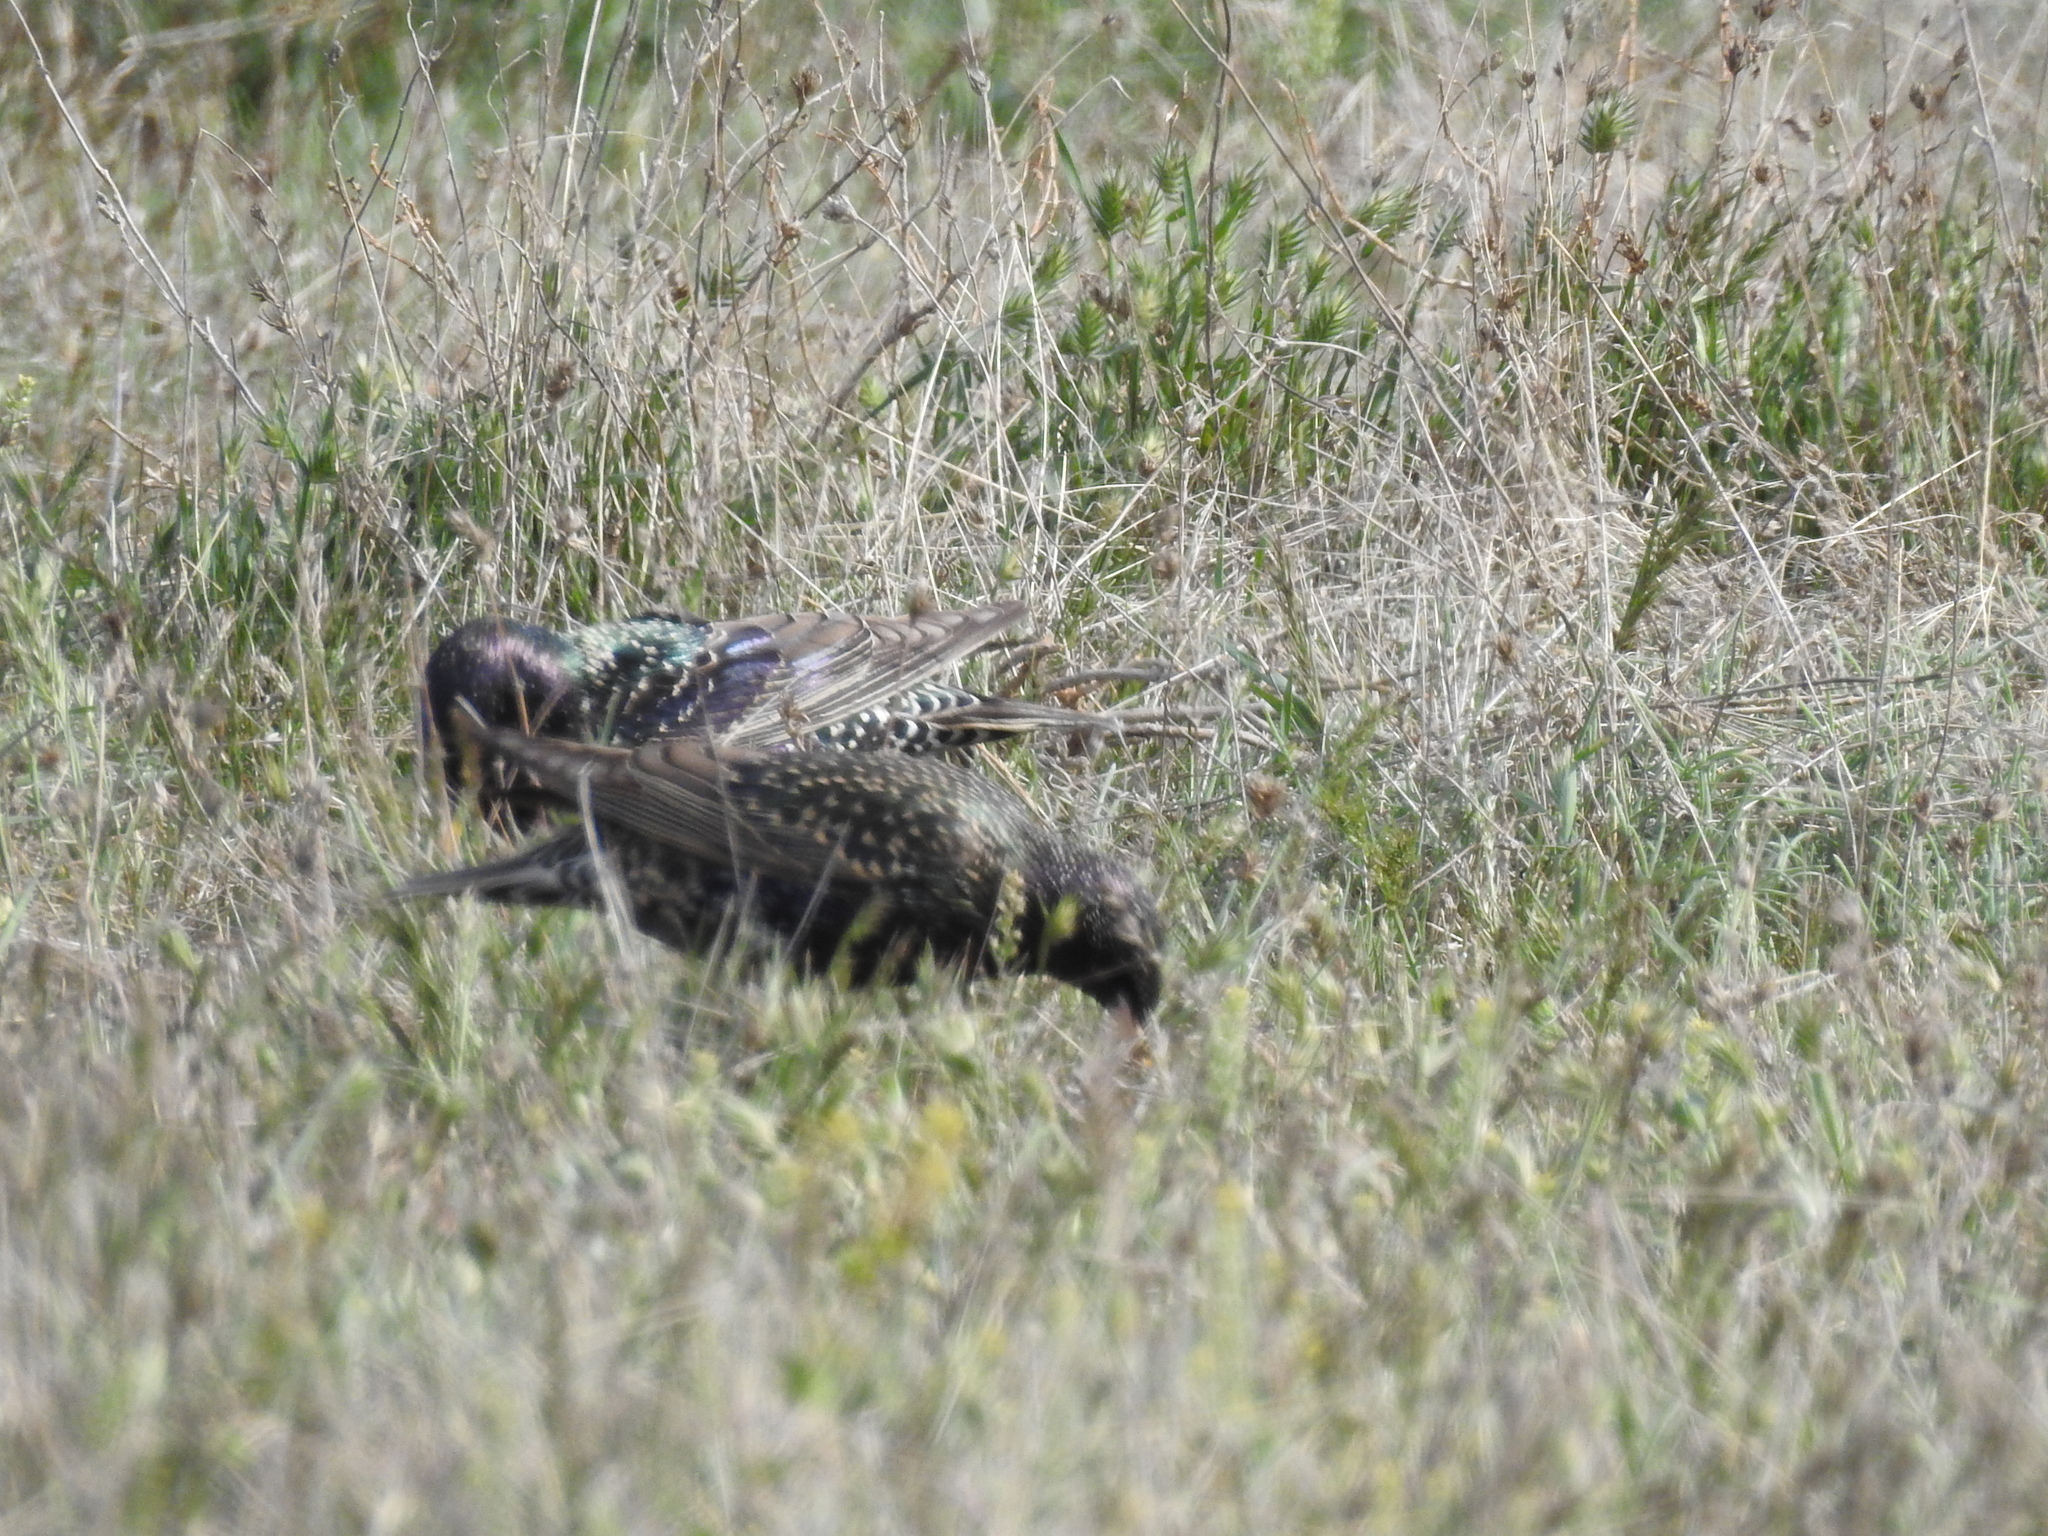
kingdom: Animalia
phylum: Chordata
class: Aves
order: Passeriformes
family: Sturnidae
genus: Sturnus
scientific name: Sturnus vulgaris
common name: Common starling
